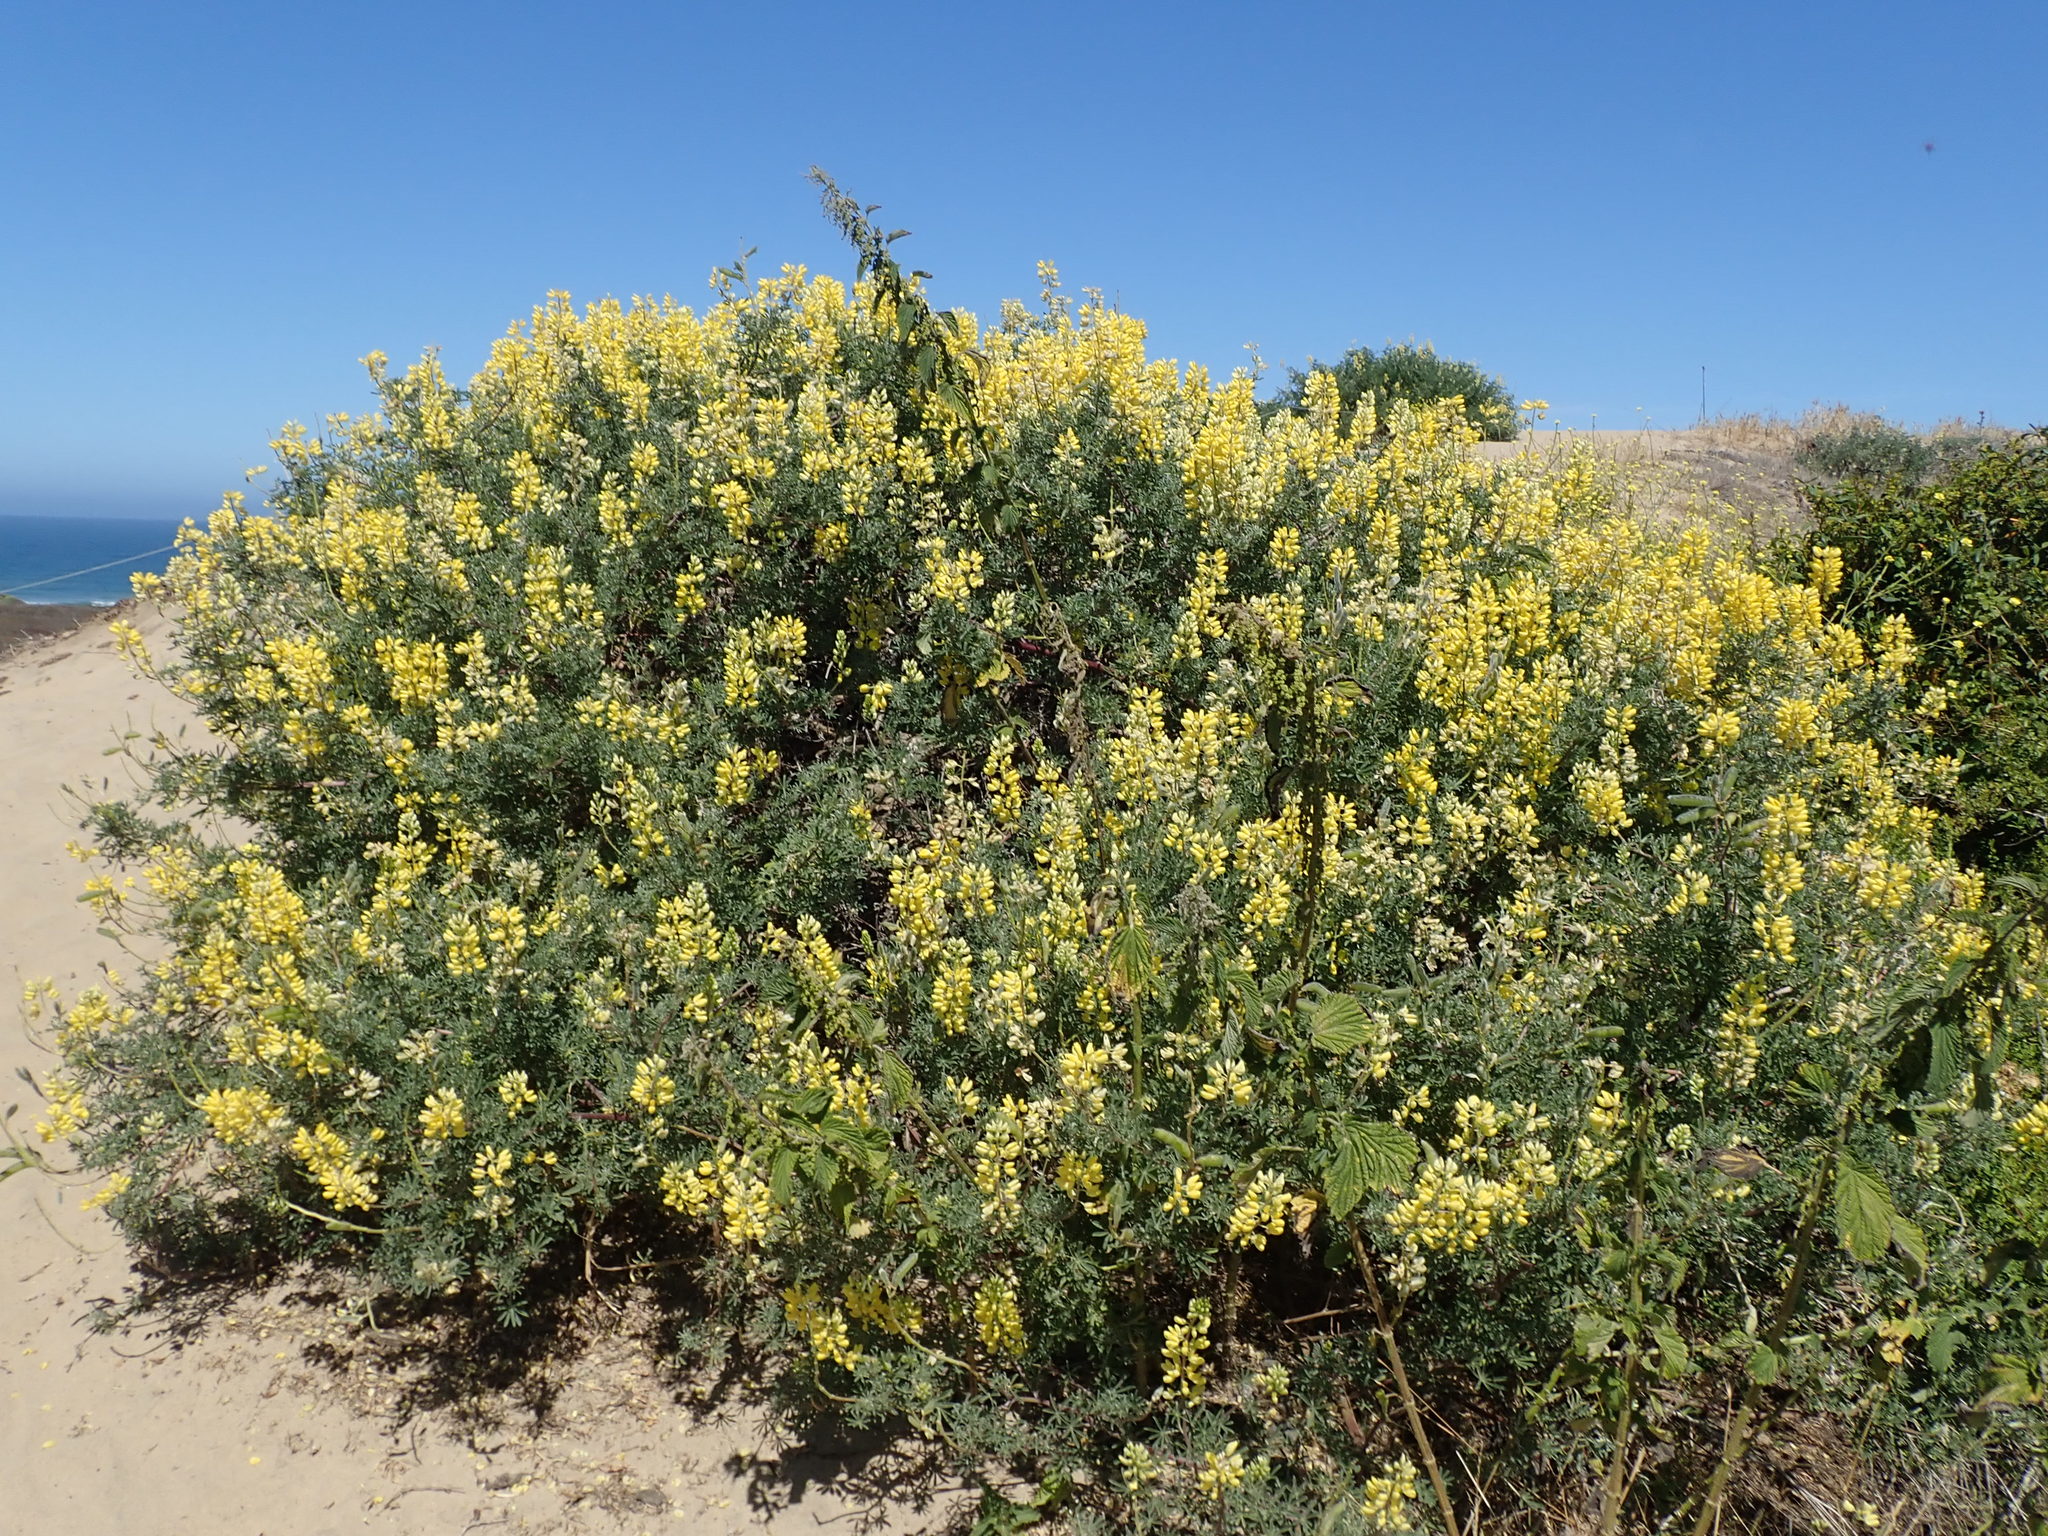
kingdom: Plantae
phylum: Tracheophyta
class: Magnoliopsida
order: Fabales
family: Fabaceae
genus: Lupinus
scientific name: Lupinus arboreus
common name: Yellow bush lupine
